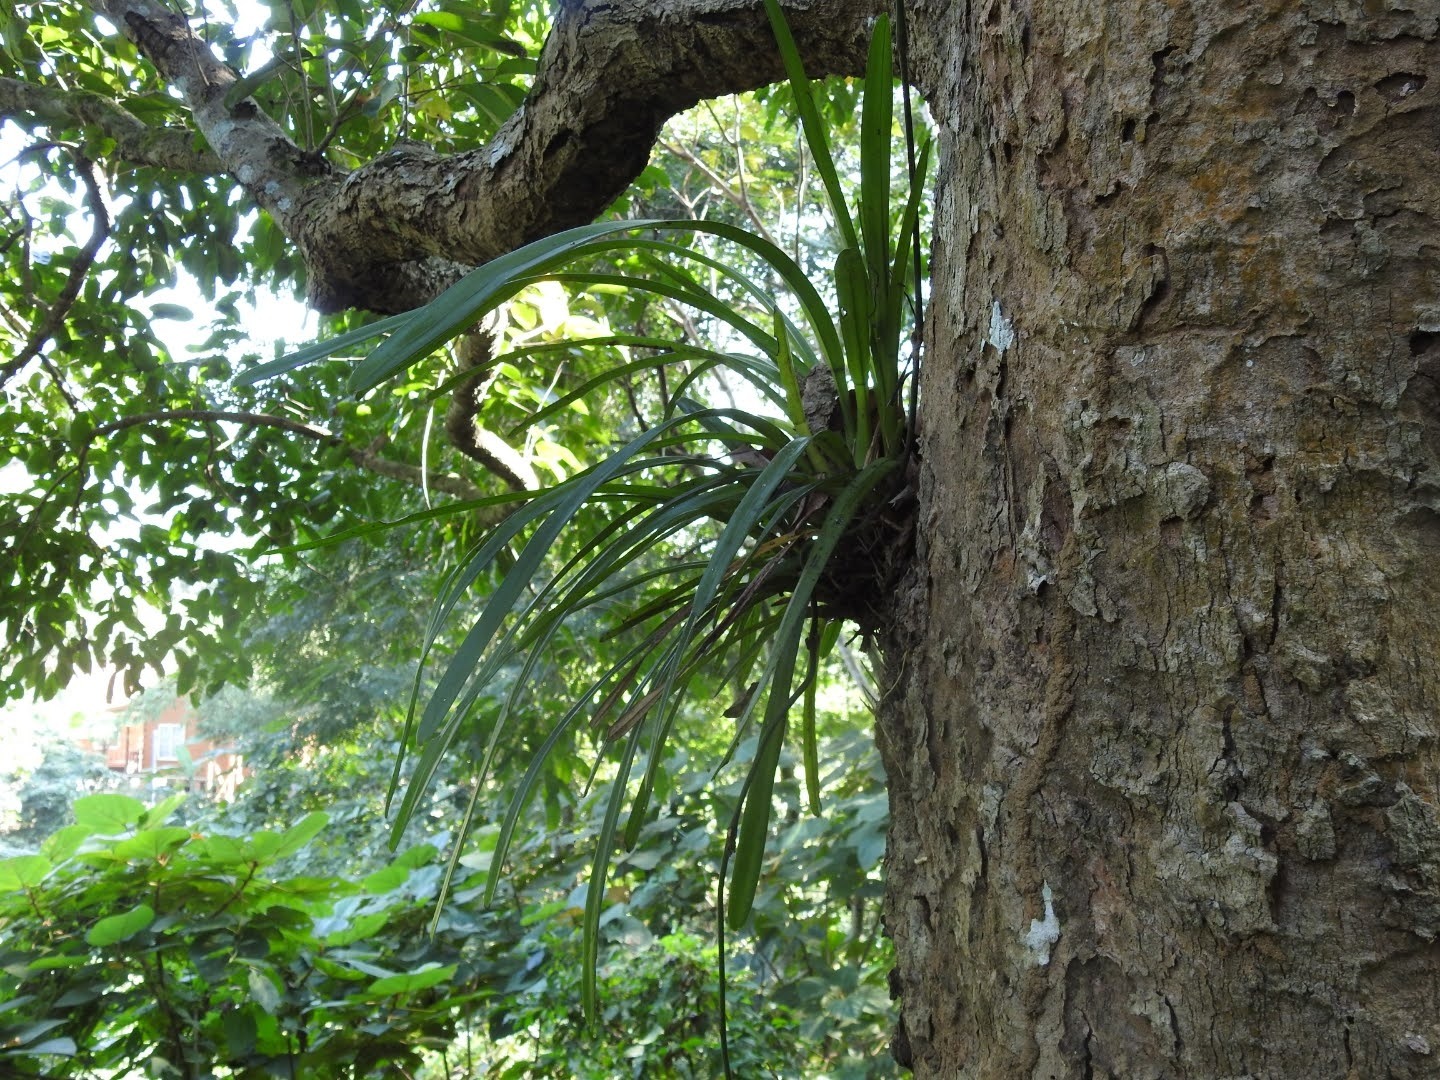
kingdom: Plantae
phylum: Tracheophyta
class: Liliopsida
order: Asparagales
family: Orchidaceae
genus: Cymbidium
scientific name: Cymbidium aloifolium
